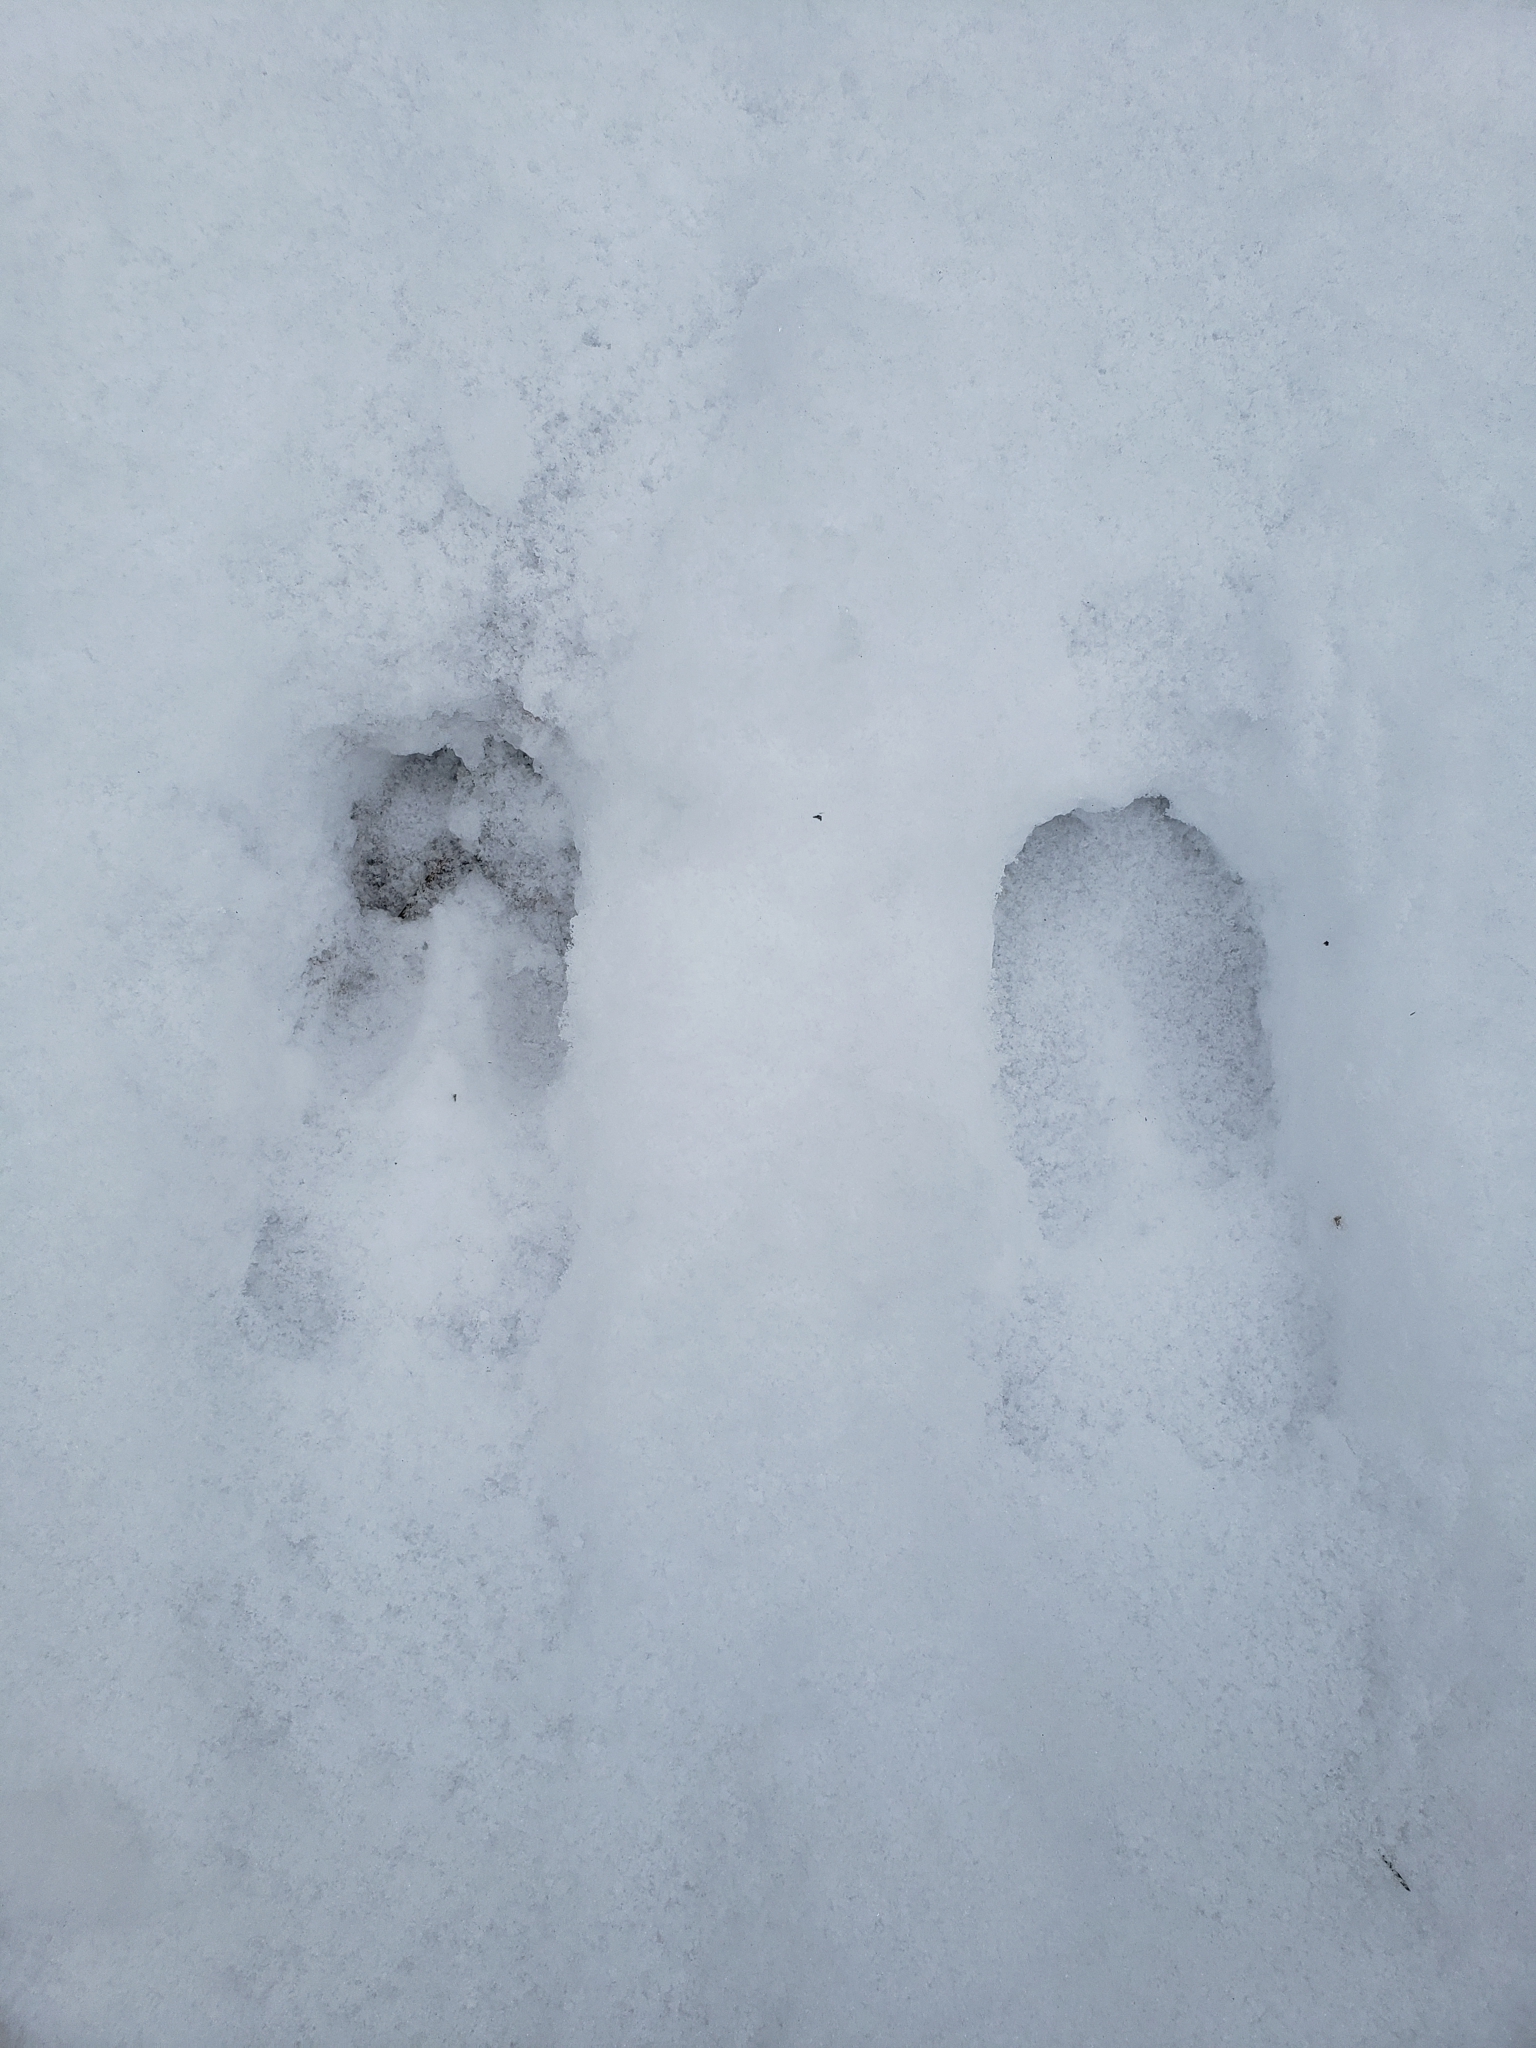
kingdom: Animalia
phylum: Chordata
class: Mammalia
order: Artiodactyla
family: Cervidae
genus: Odocoileus
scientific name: Odocoileus virginianus
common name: White-tailed deer
